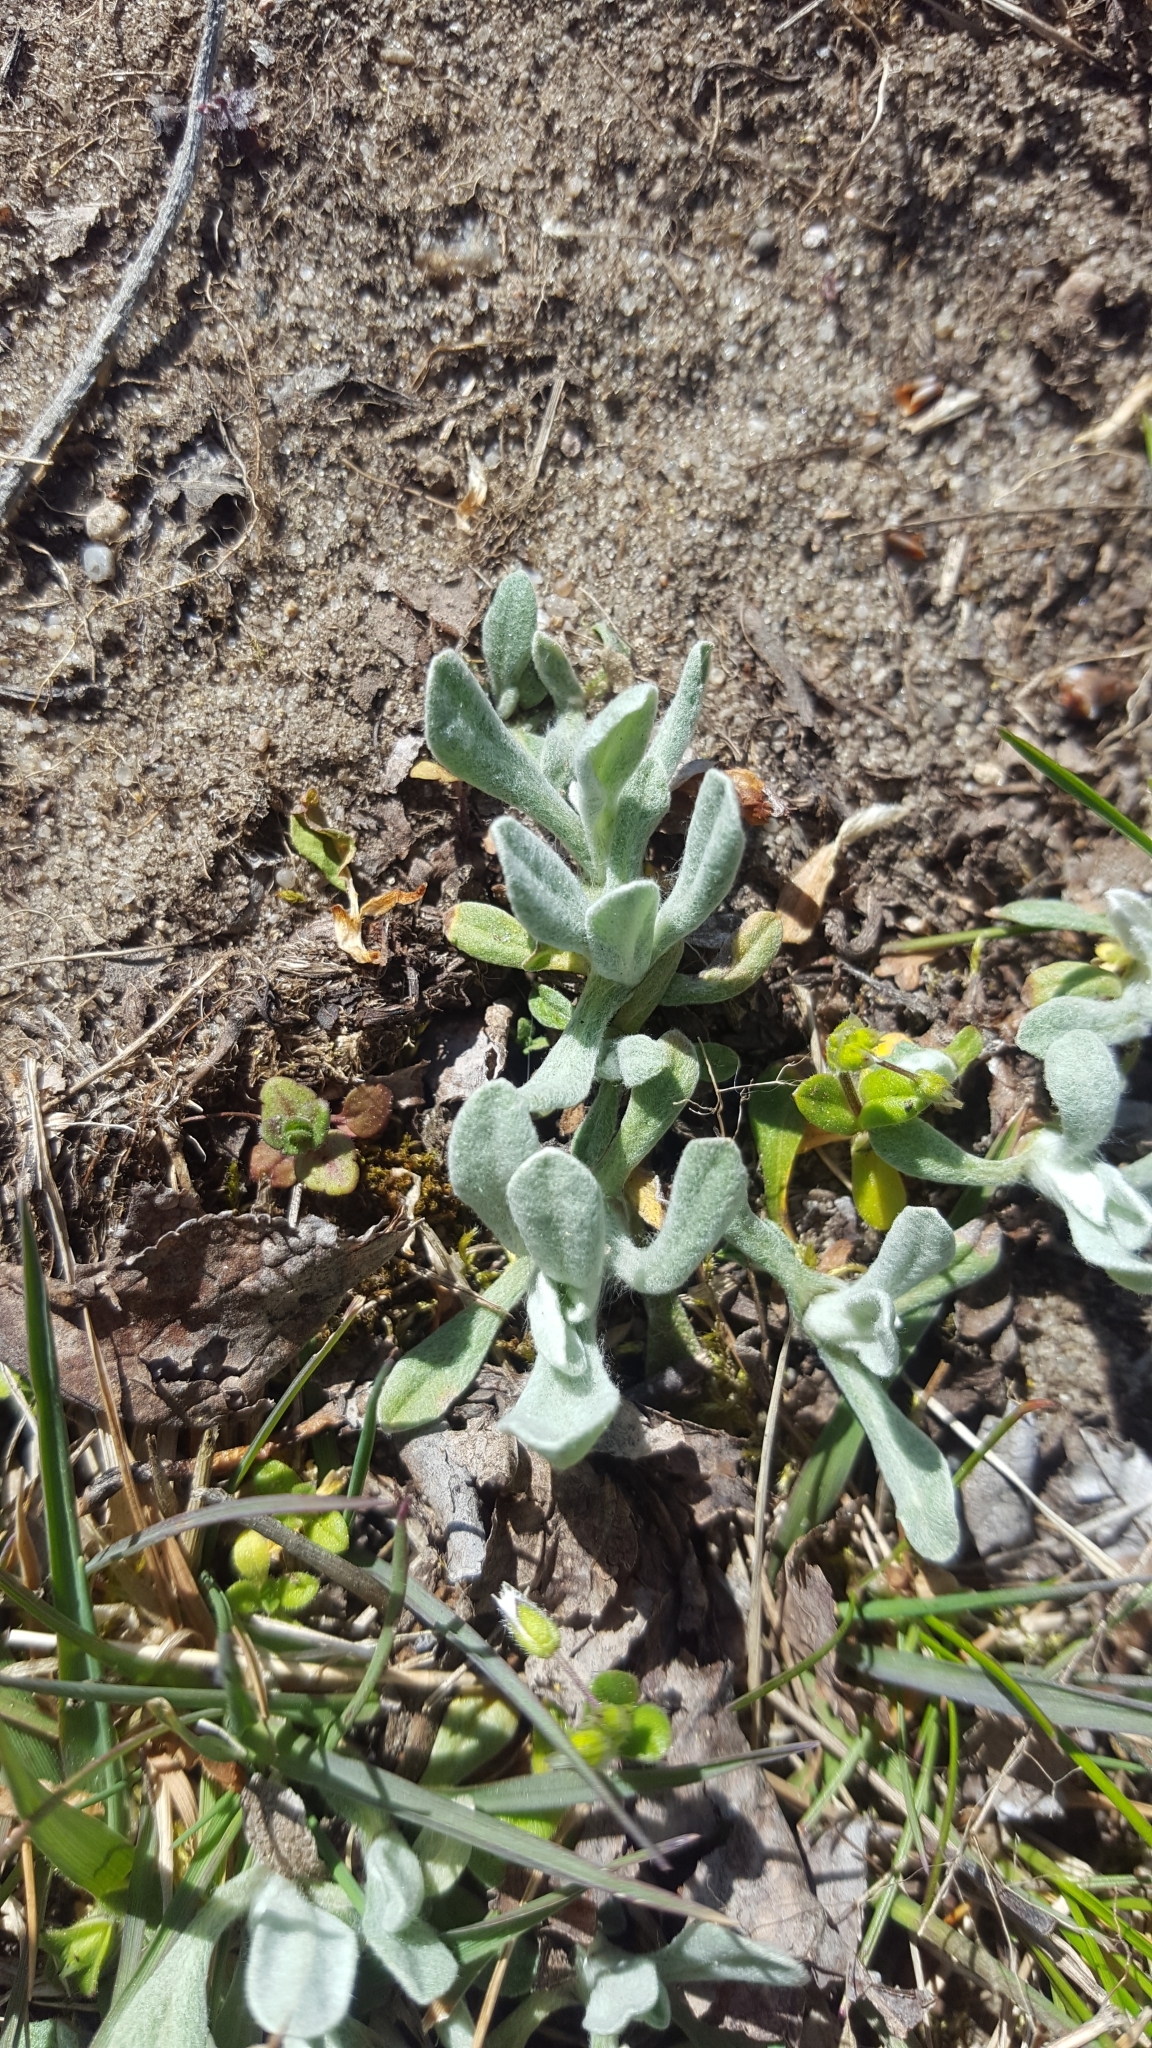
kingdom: Plantae
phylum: Tracheophyta
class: Magnoliopsida
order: Asterales
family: Asteraceae
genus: Helichrysum
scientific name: Helichrysum arenarium
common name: Strawflower
